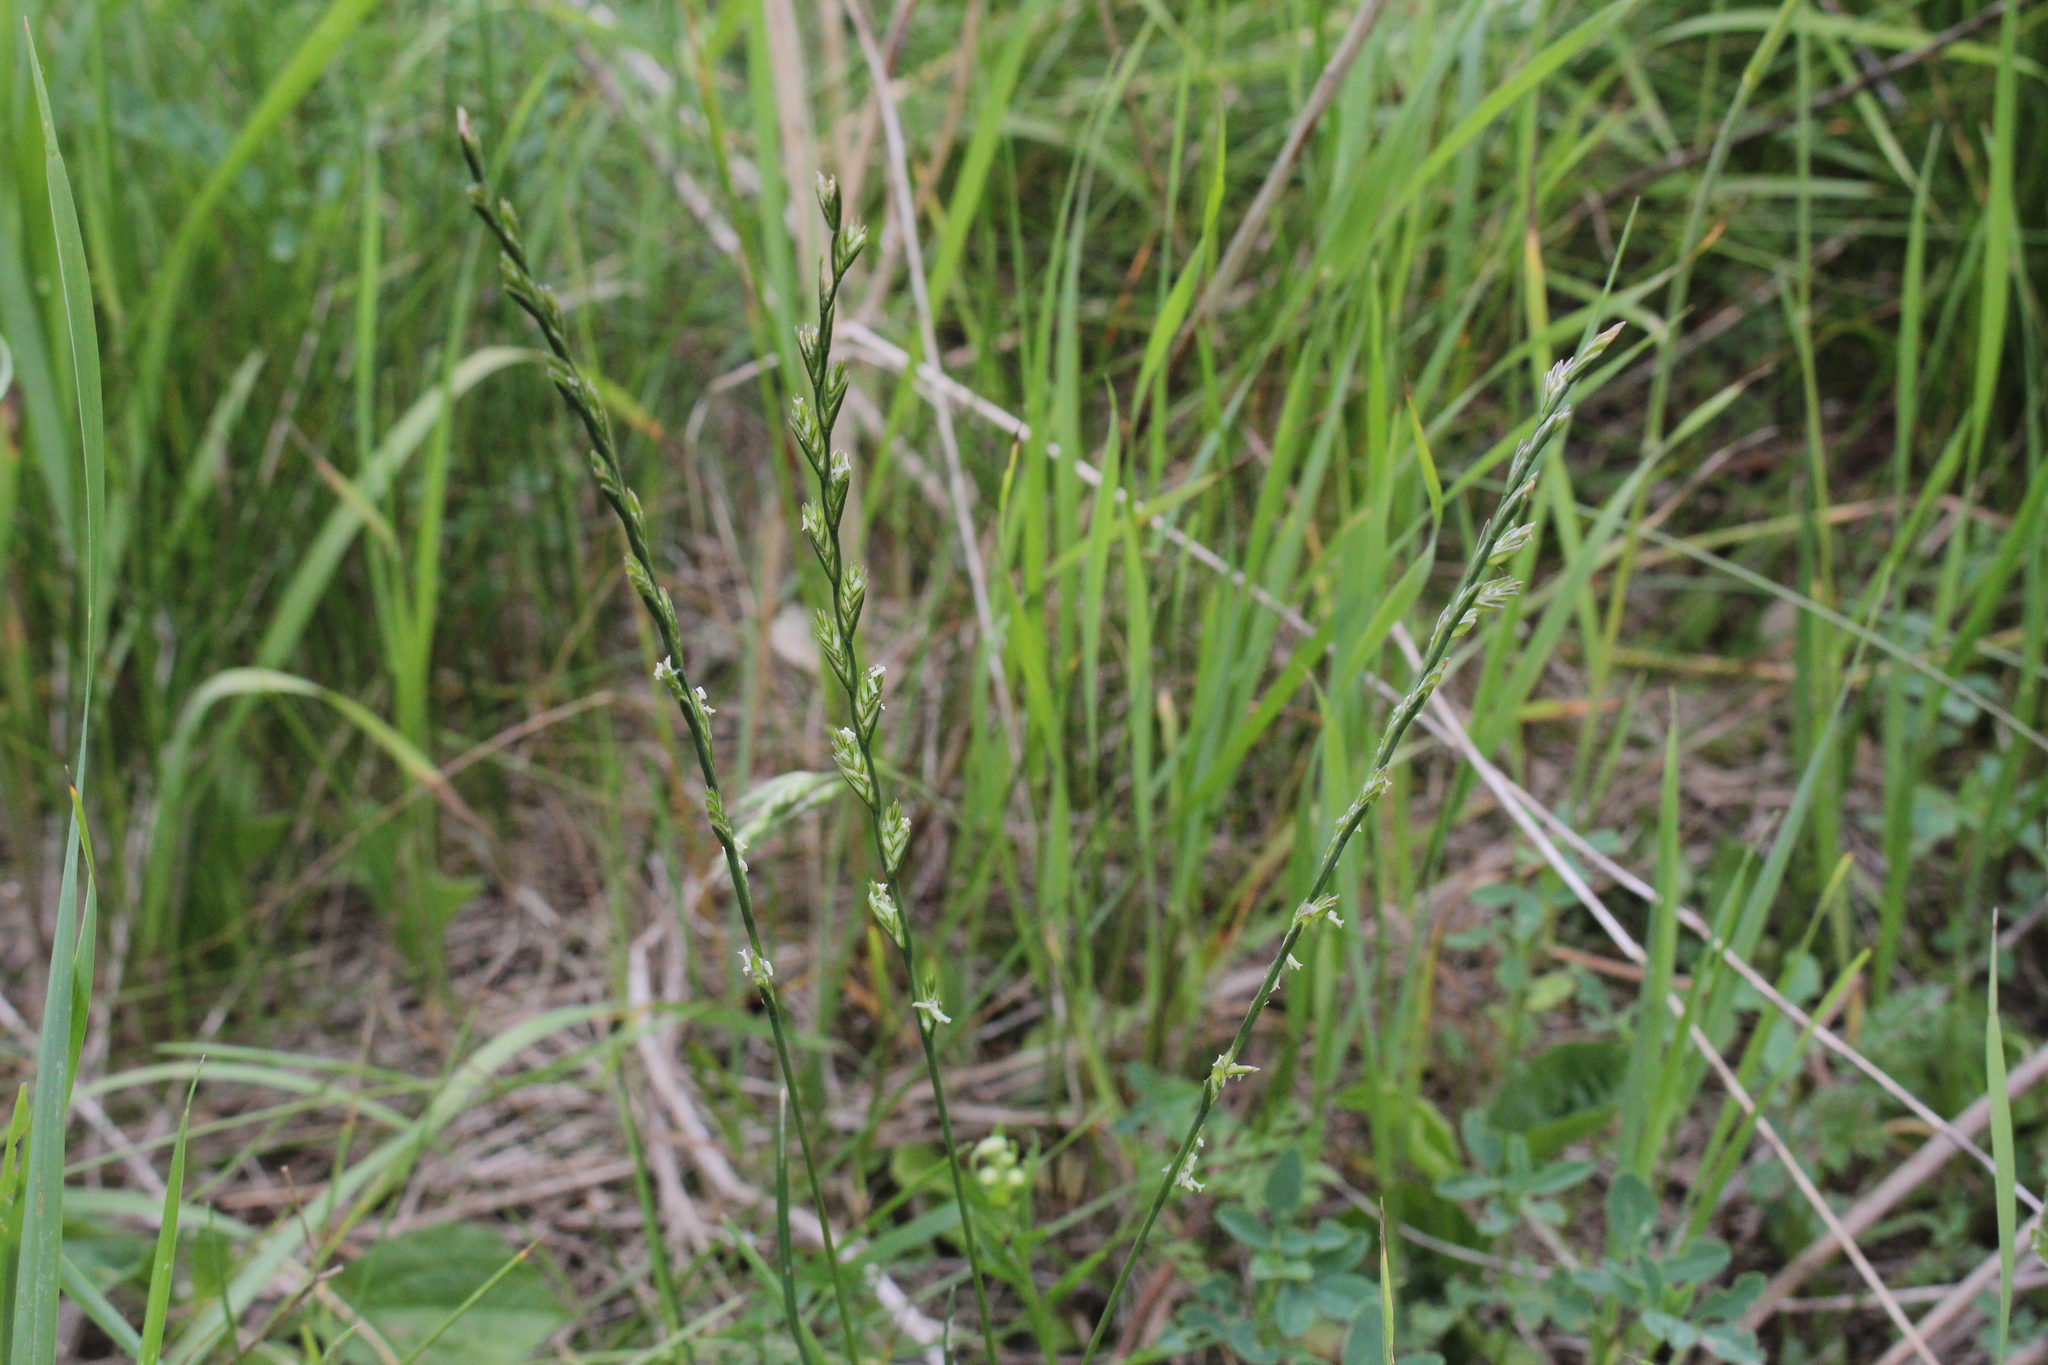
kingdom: Plantae
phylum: Tracheophyta
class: Liliopsida
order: Poales
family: Poaceae
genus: Lolium
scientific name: Lolium perenne
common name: Perennial ryegrass
